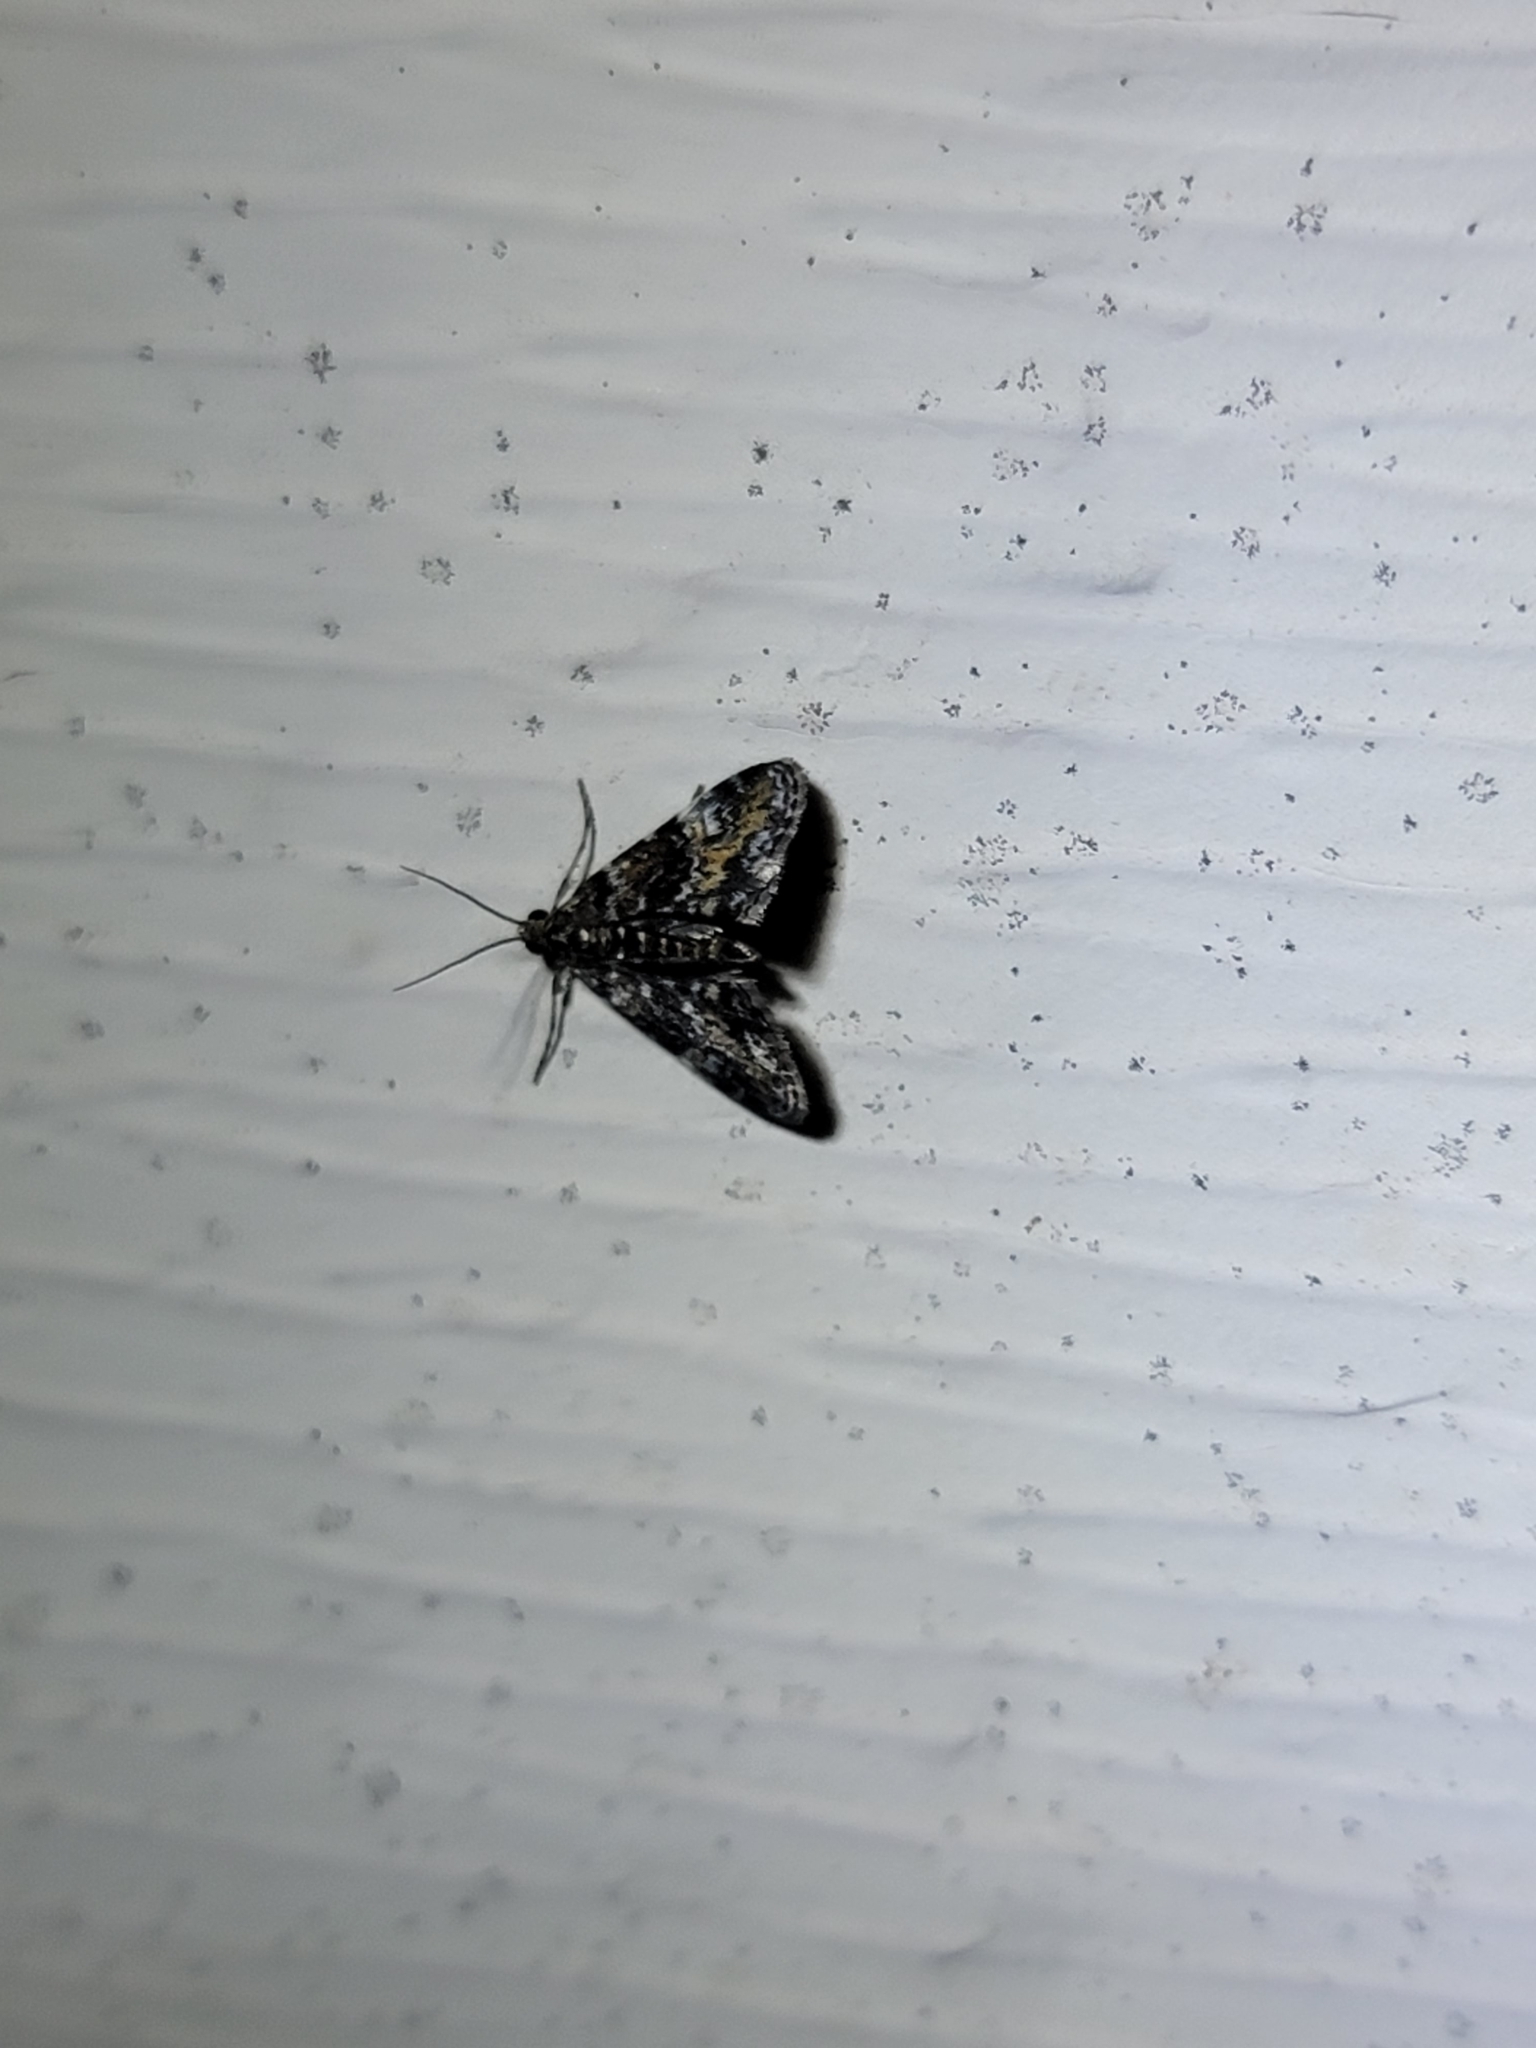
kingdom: Animalia
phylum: Arthropoda
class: Insecta
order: Lepidoptera
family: Crambidae
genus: Elophila
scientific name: Elophila obliteralis
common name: Waterlily leafcutter moth
